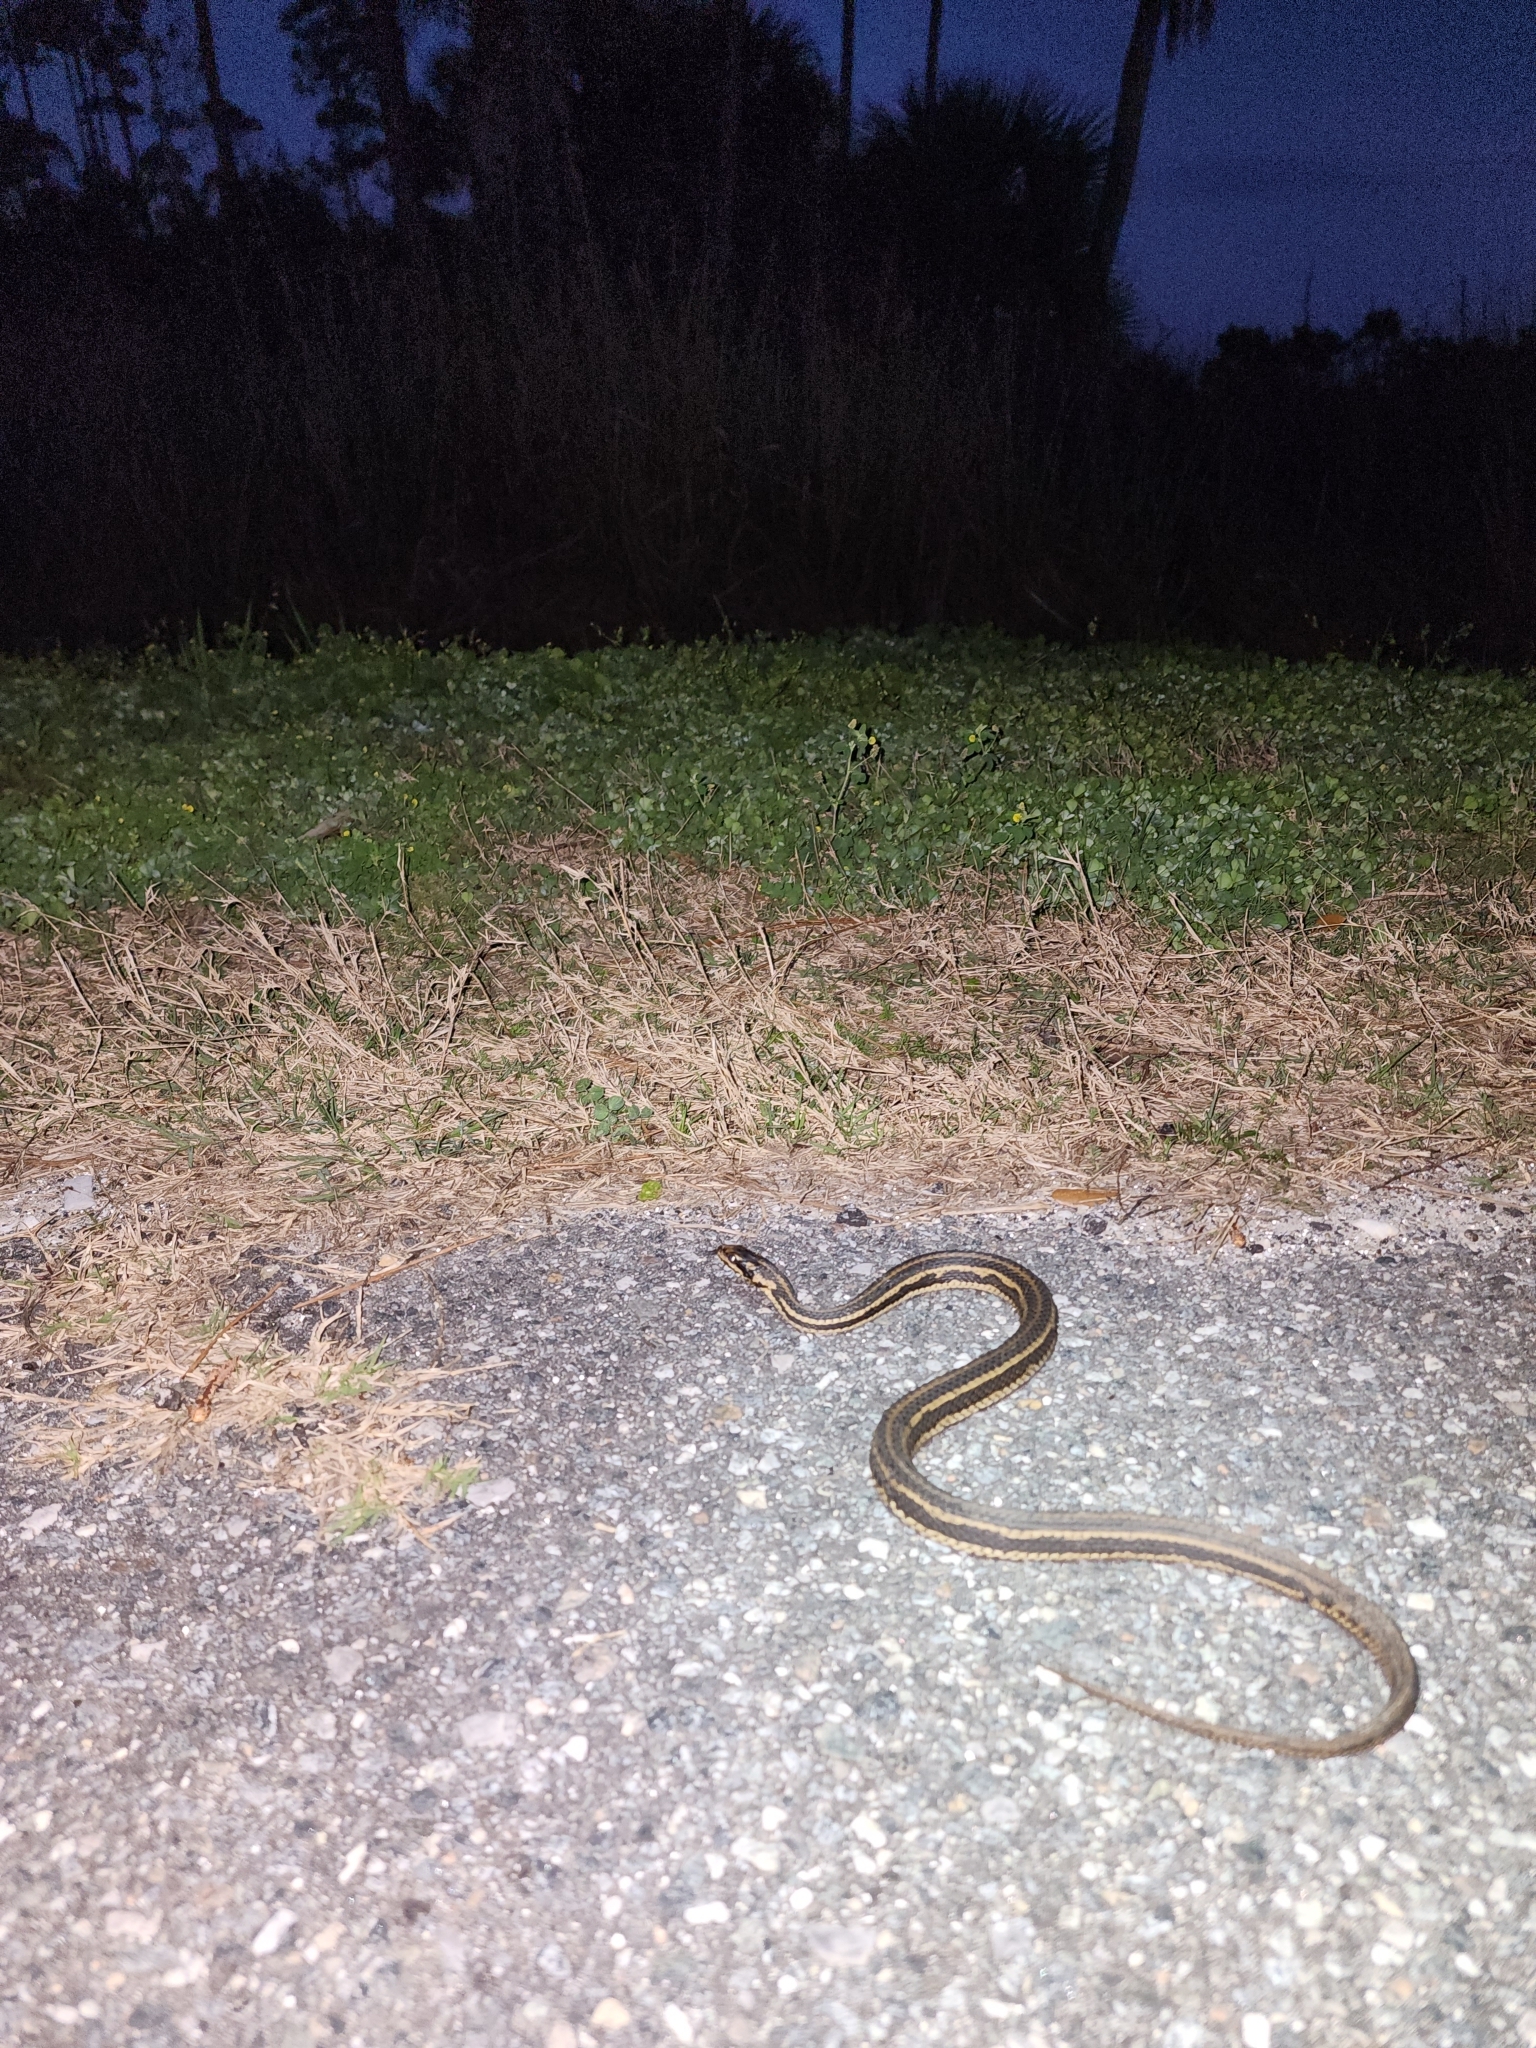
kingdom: Animalia
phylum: Chordata
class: Squamata
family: Colubridae
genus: Nerodia
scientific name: Nerodia clarkii
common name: Atlantic saltmarsh snake
